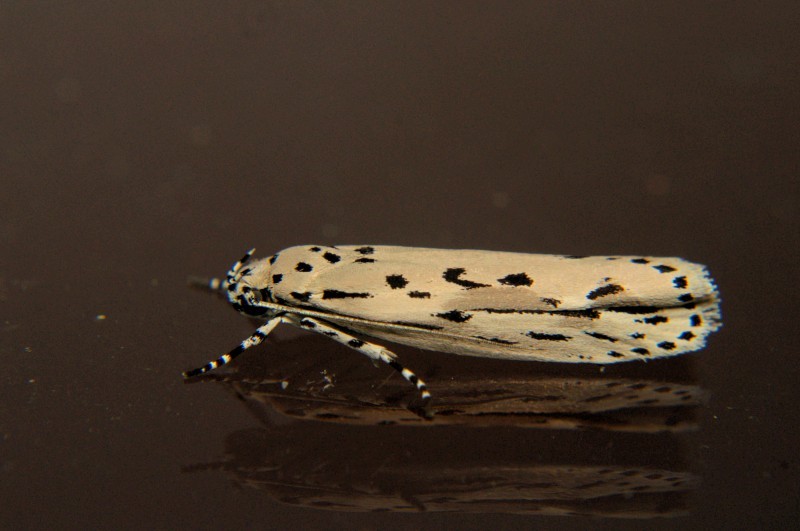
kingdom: Animalia
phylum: Arthropoda
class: Insecta
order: Lepidoptera
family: Ethmiidae
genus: Ethmia
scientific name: Ethmia lineatonotella
